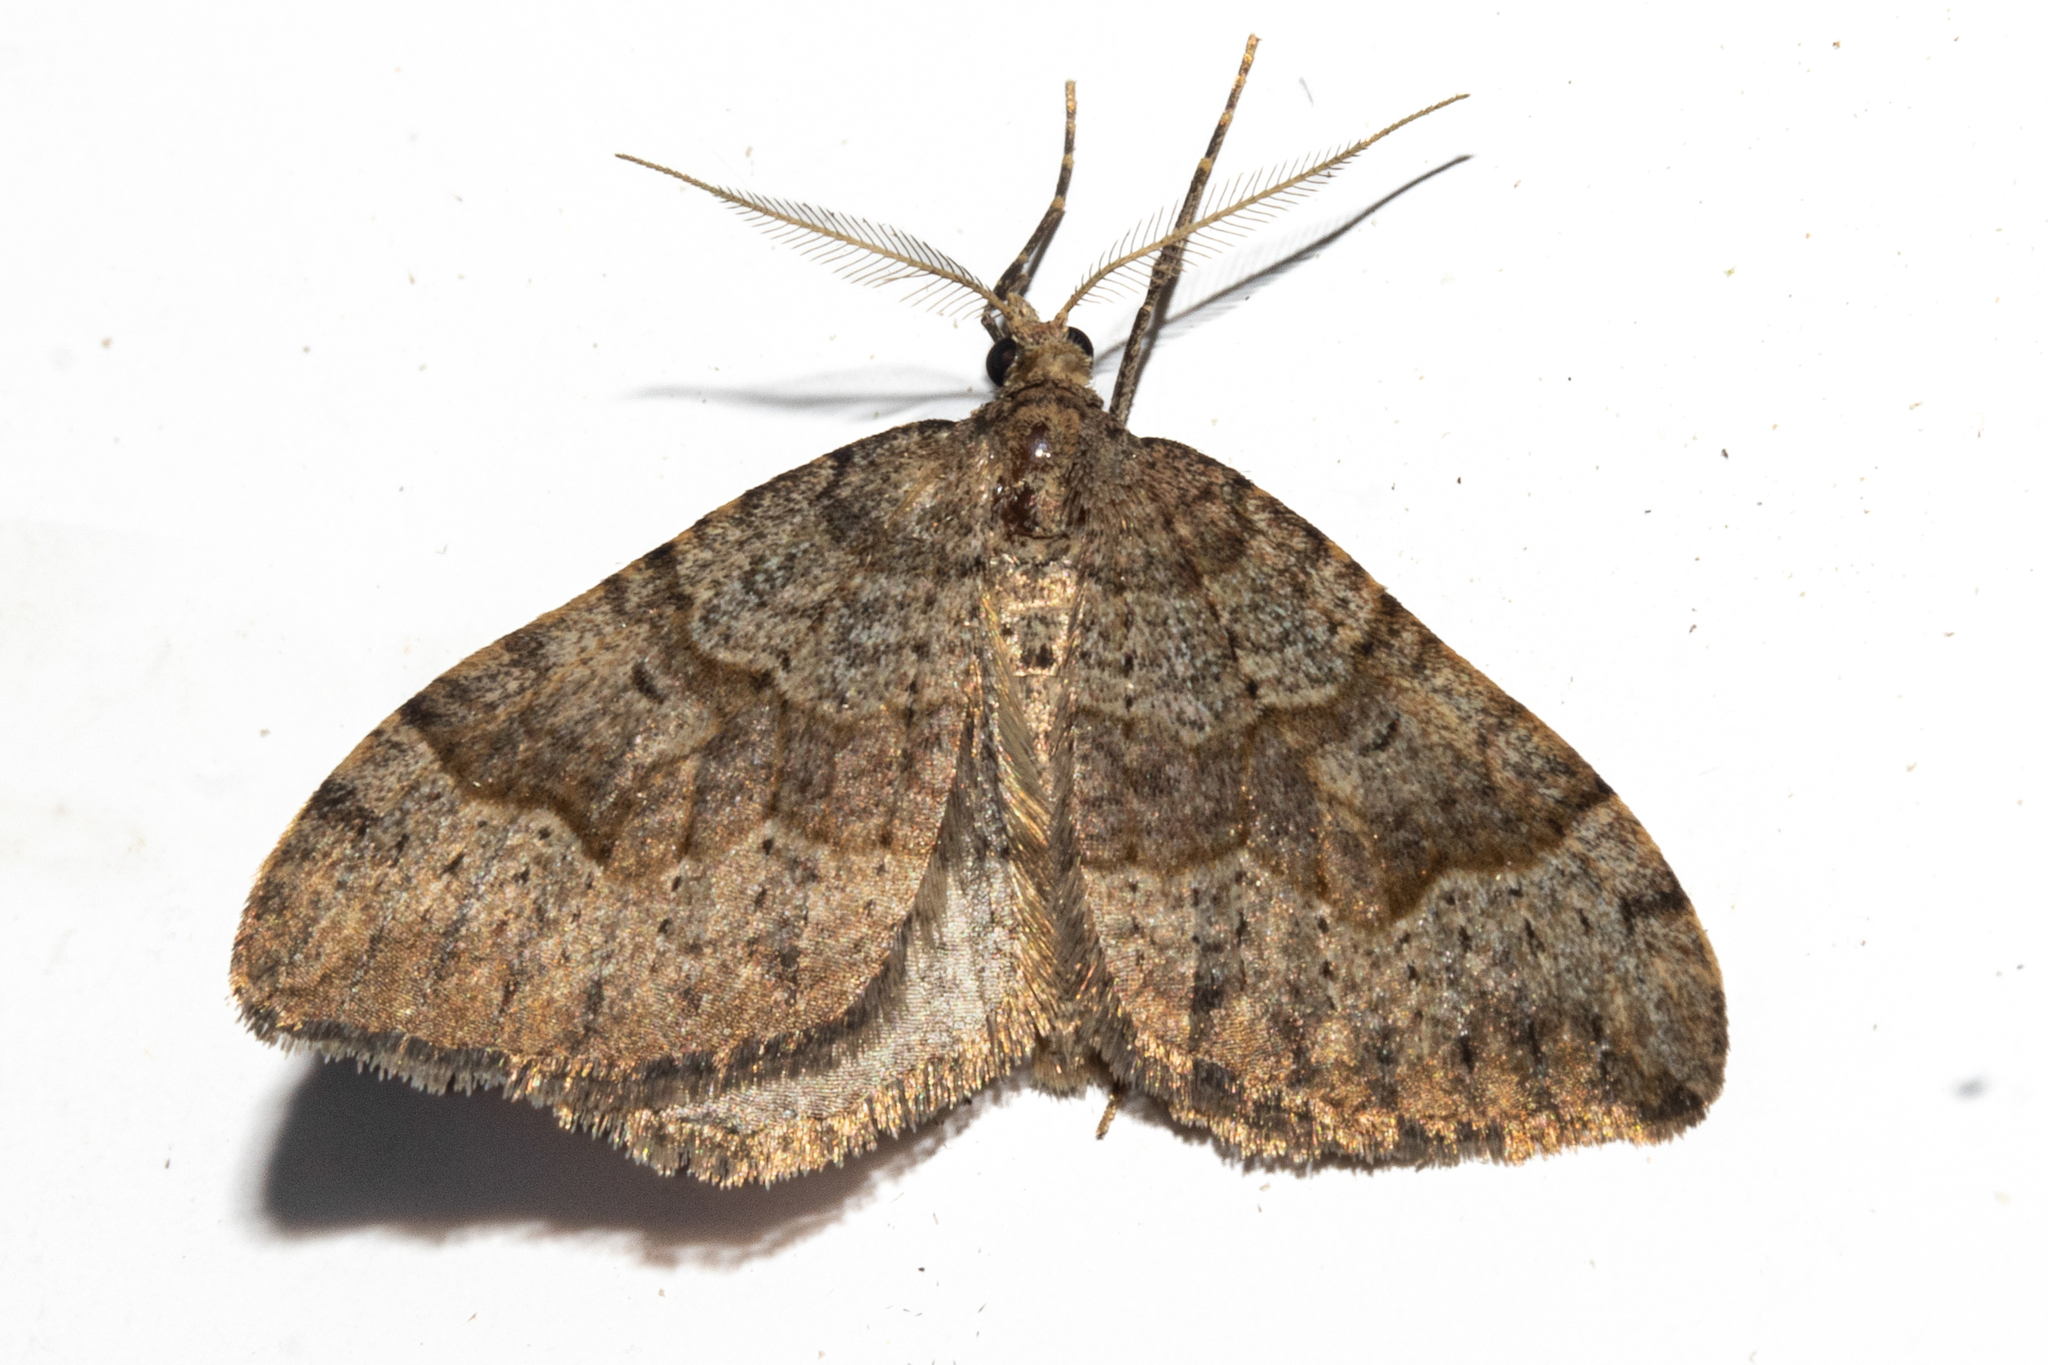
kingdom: Animalia
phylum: Arthropoda
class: Insecta
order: Lepidoptera
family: Geometridae
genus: Epyaxa
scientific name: Epyaxa rosearia
